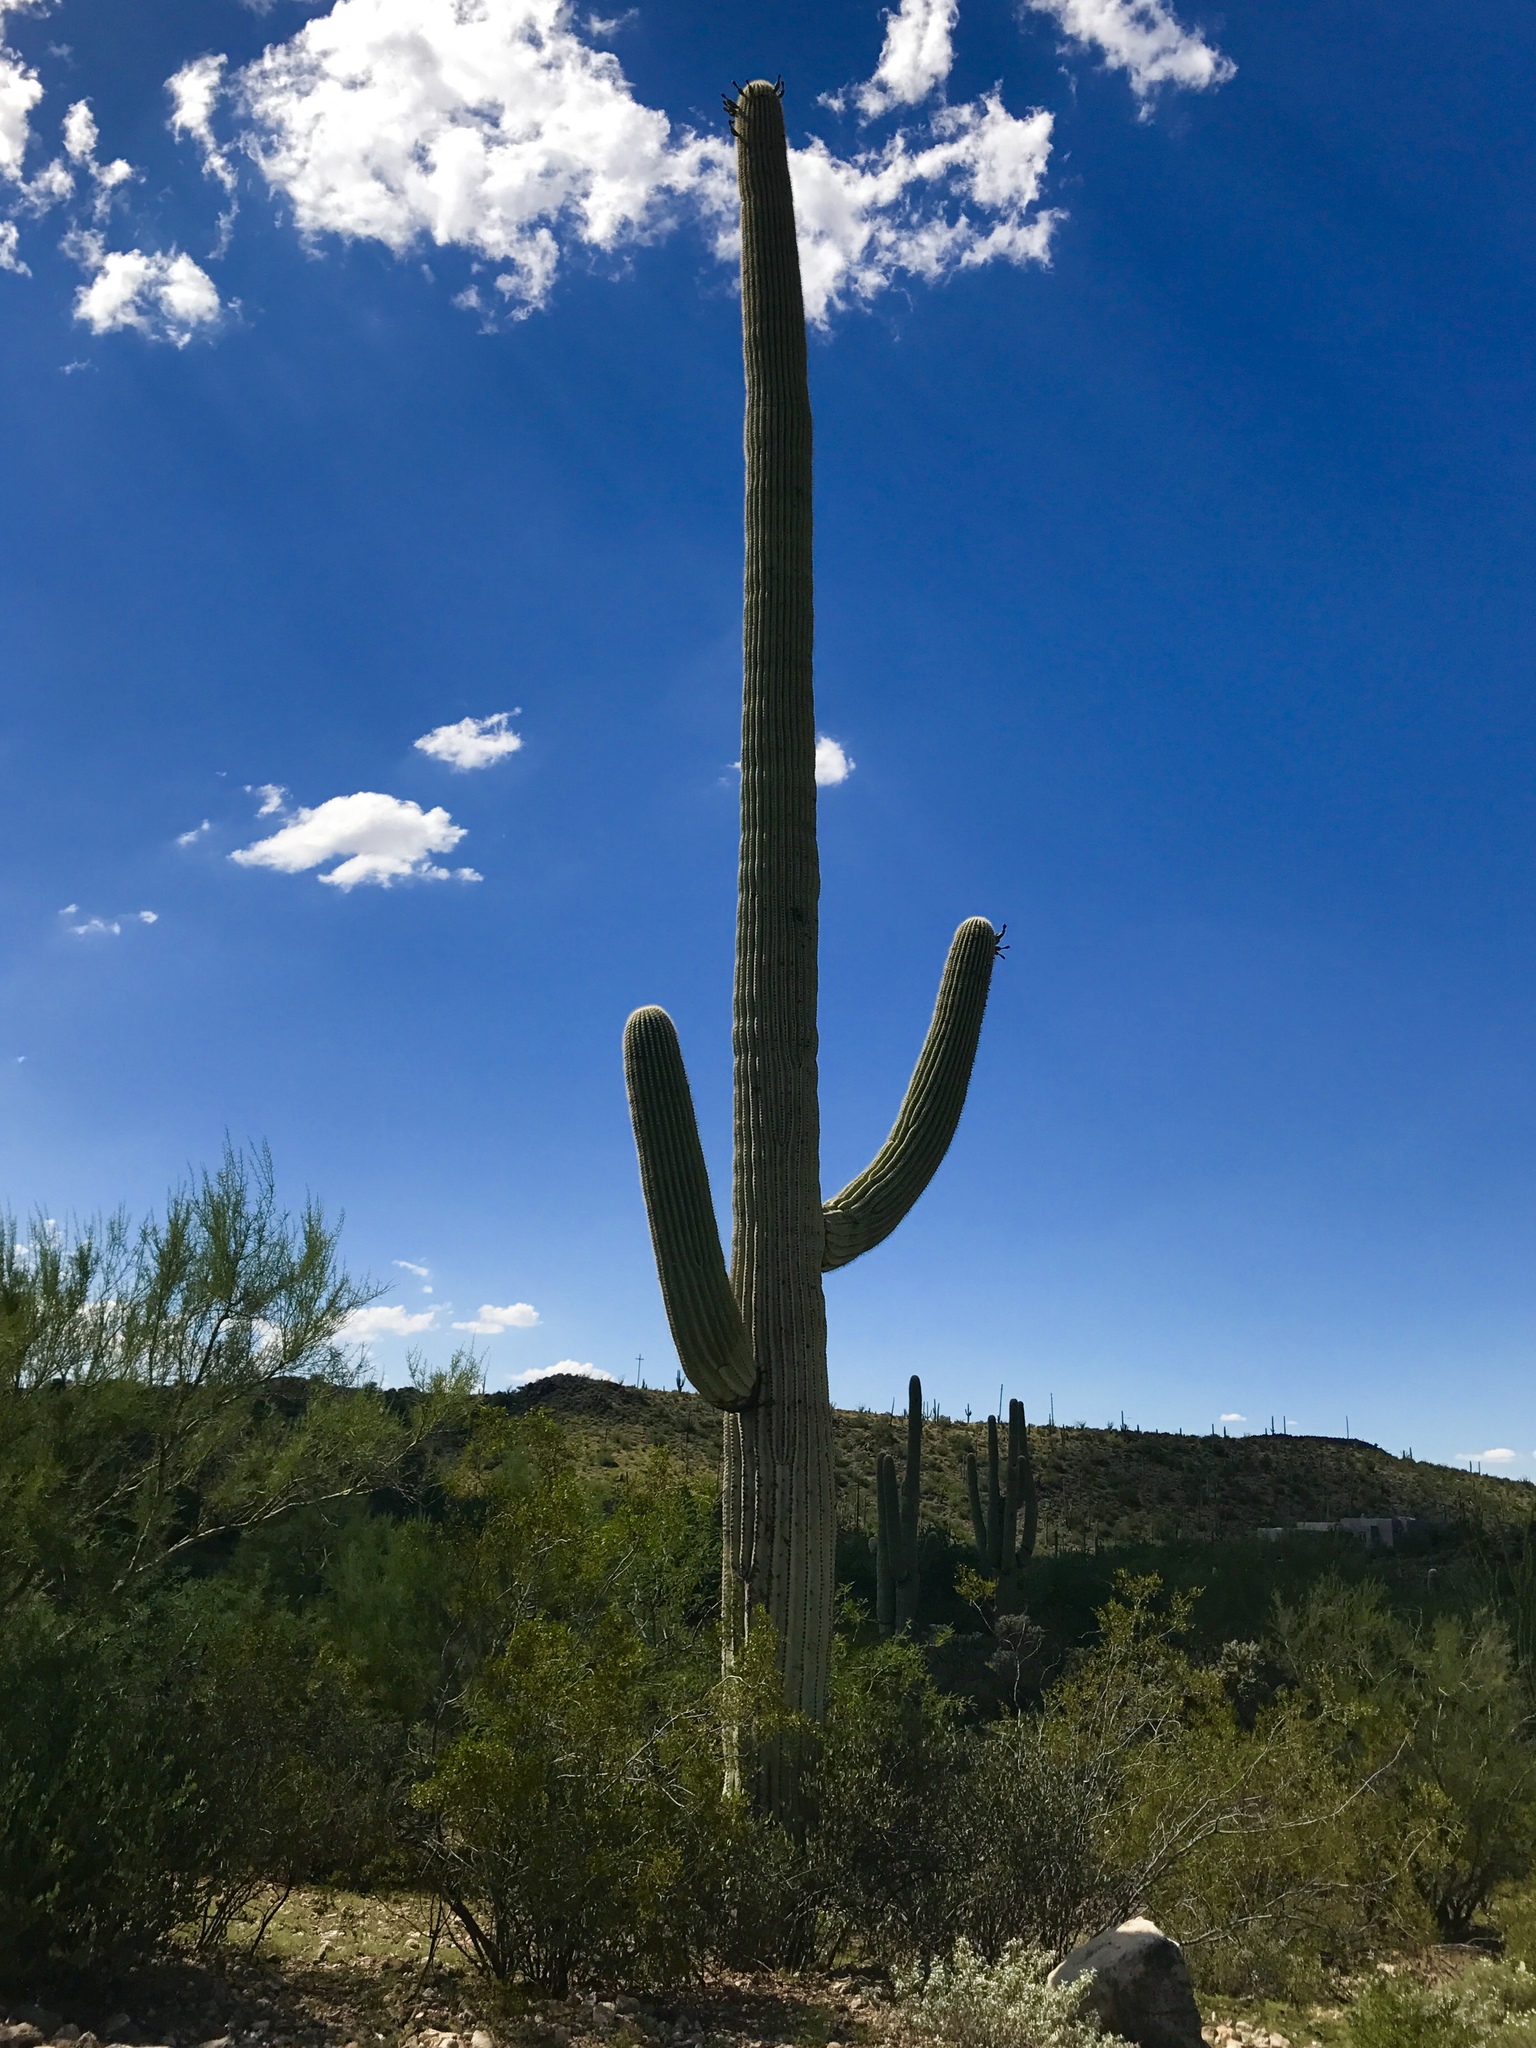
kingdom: Plantae
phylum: Tracheophyta
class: Magnoliopsida
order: Caryophyllales
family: Cactaceae
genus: Carnegiea
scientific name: Carnegiea gigantea
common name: Saguaro
